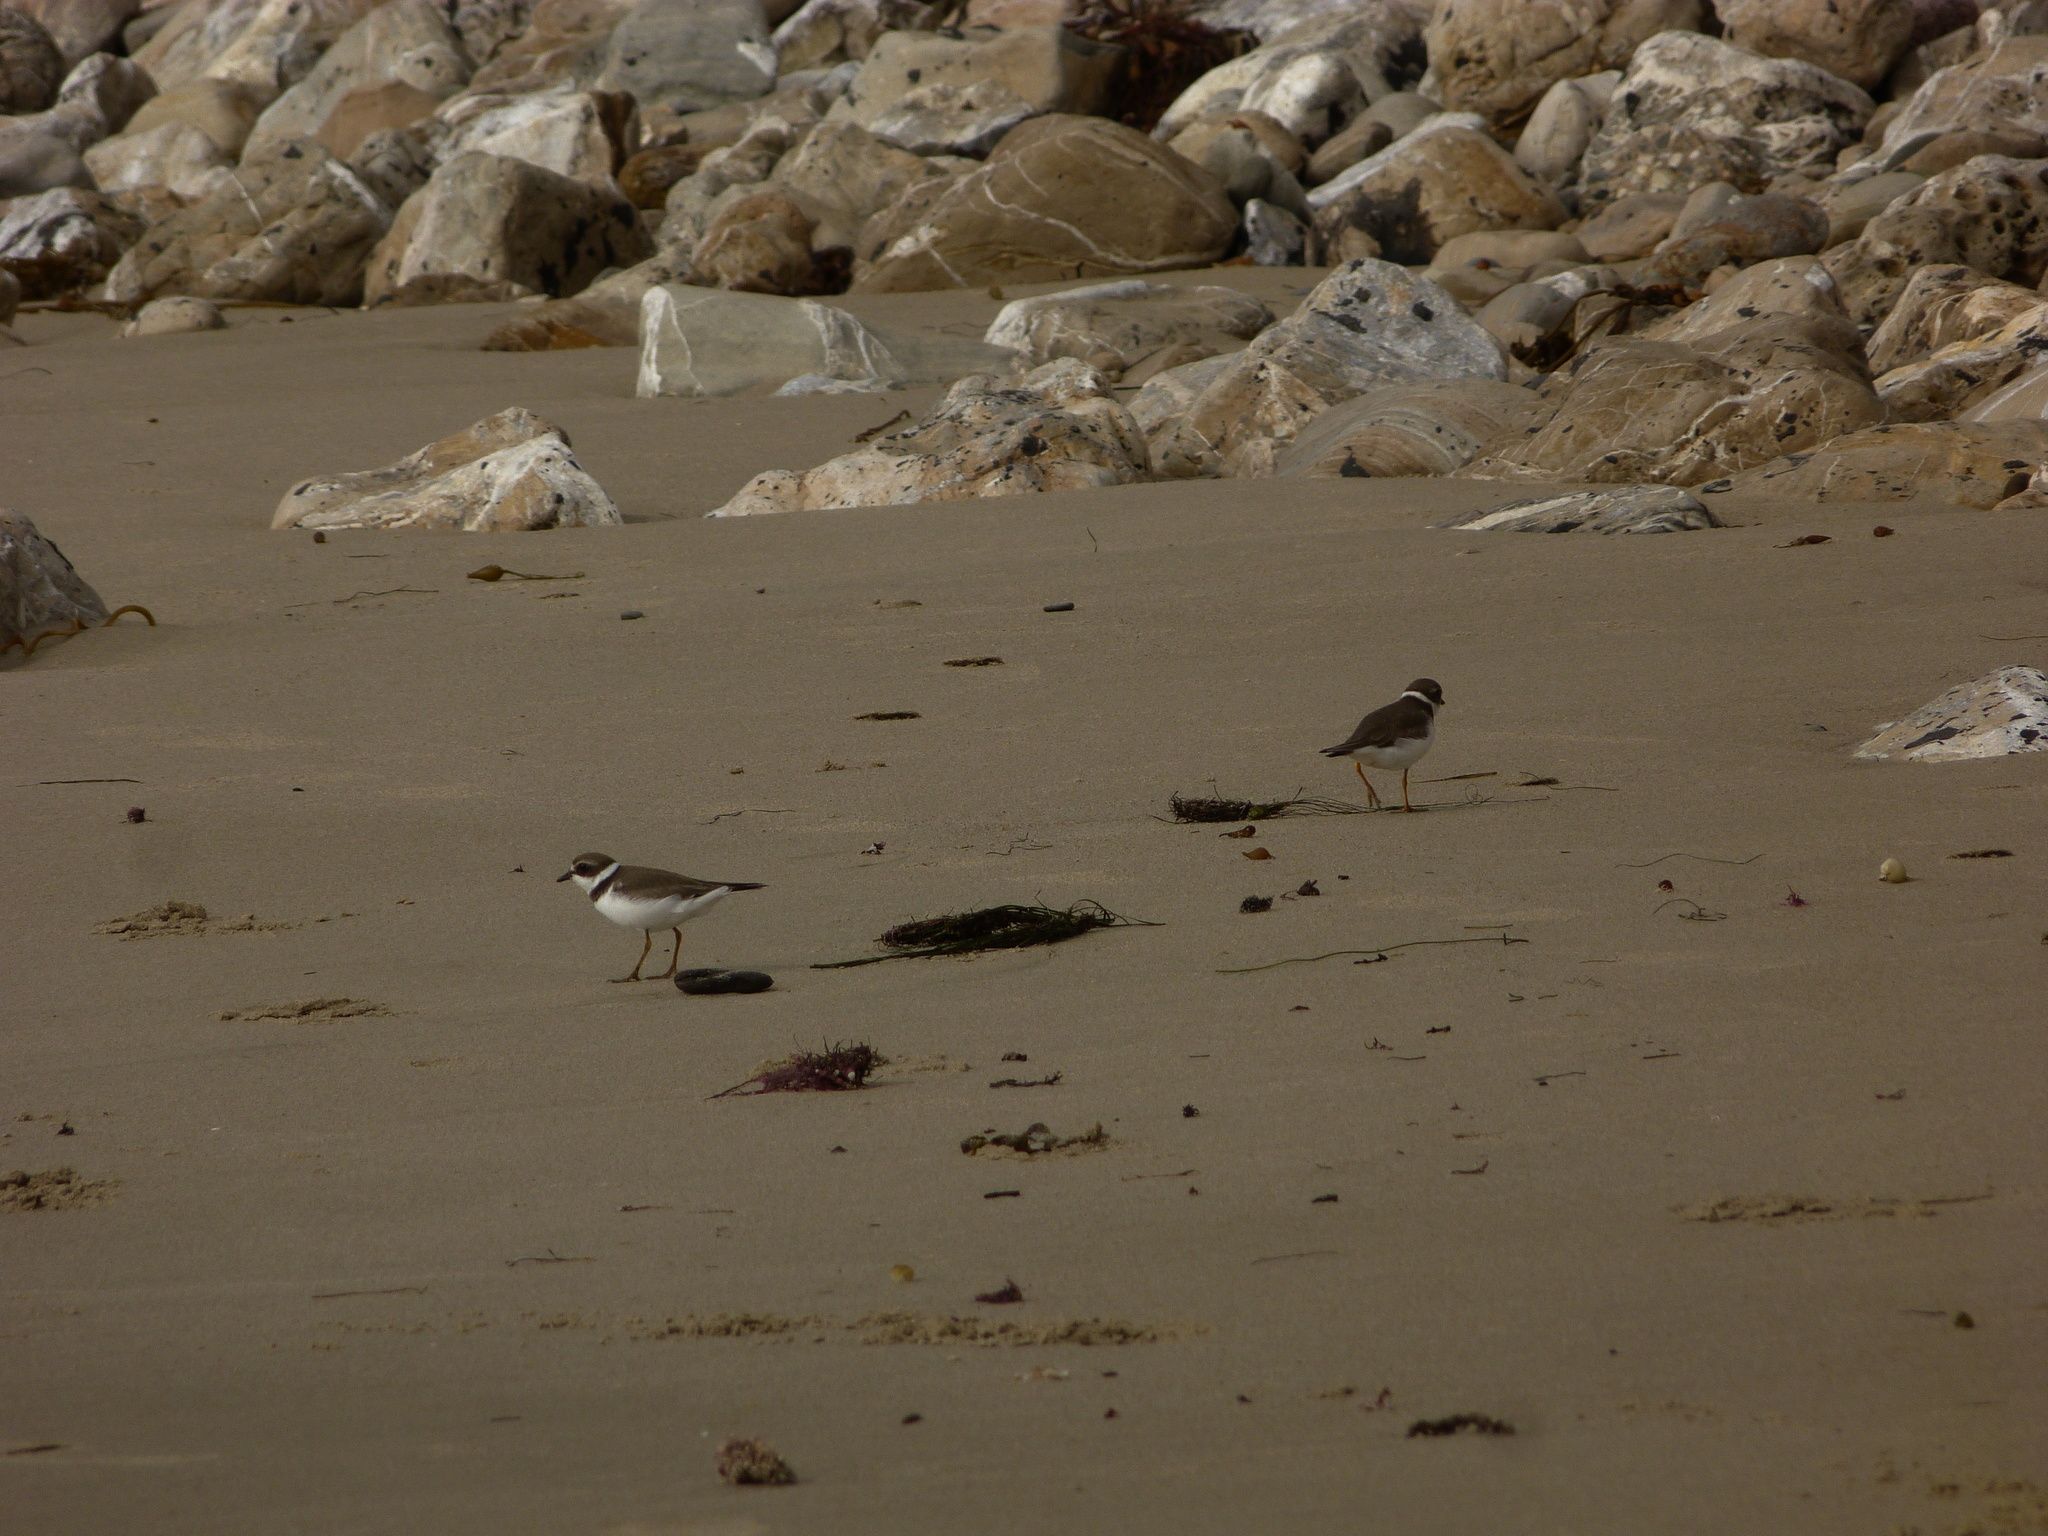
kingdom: Animalia
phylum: Chordata
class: Aves
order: Charadriiformes
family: Charadriidae
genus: Charadrius
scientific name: Charadrius semipalmatus
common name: Semipalmated plover
